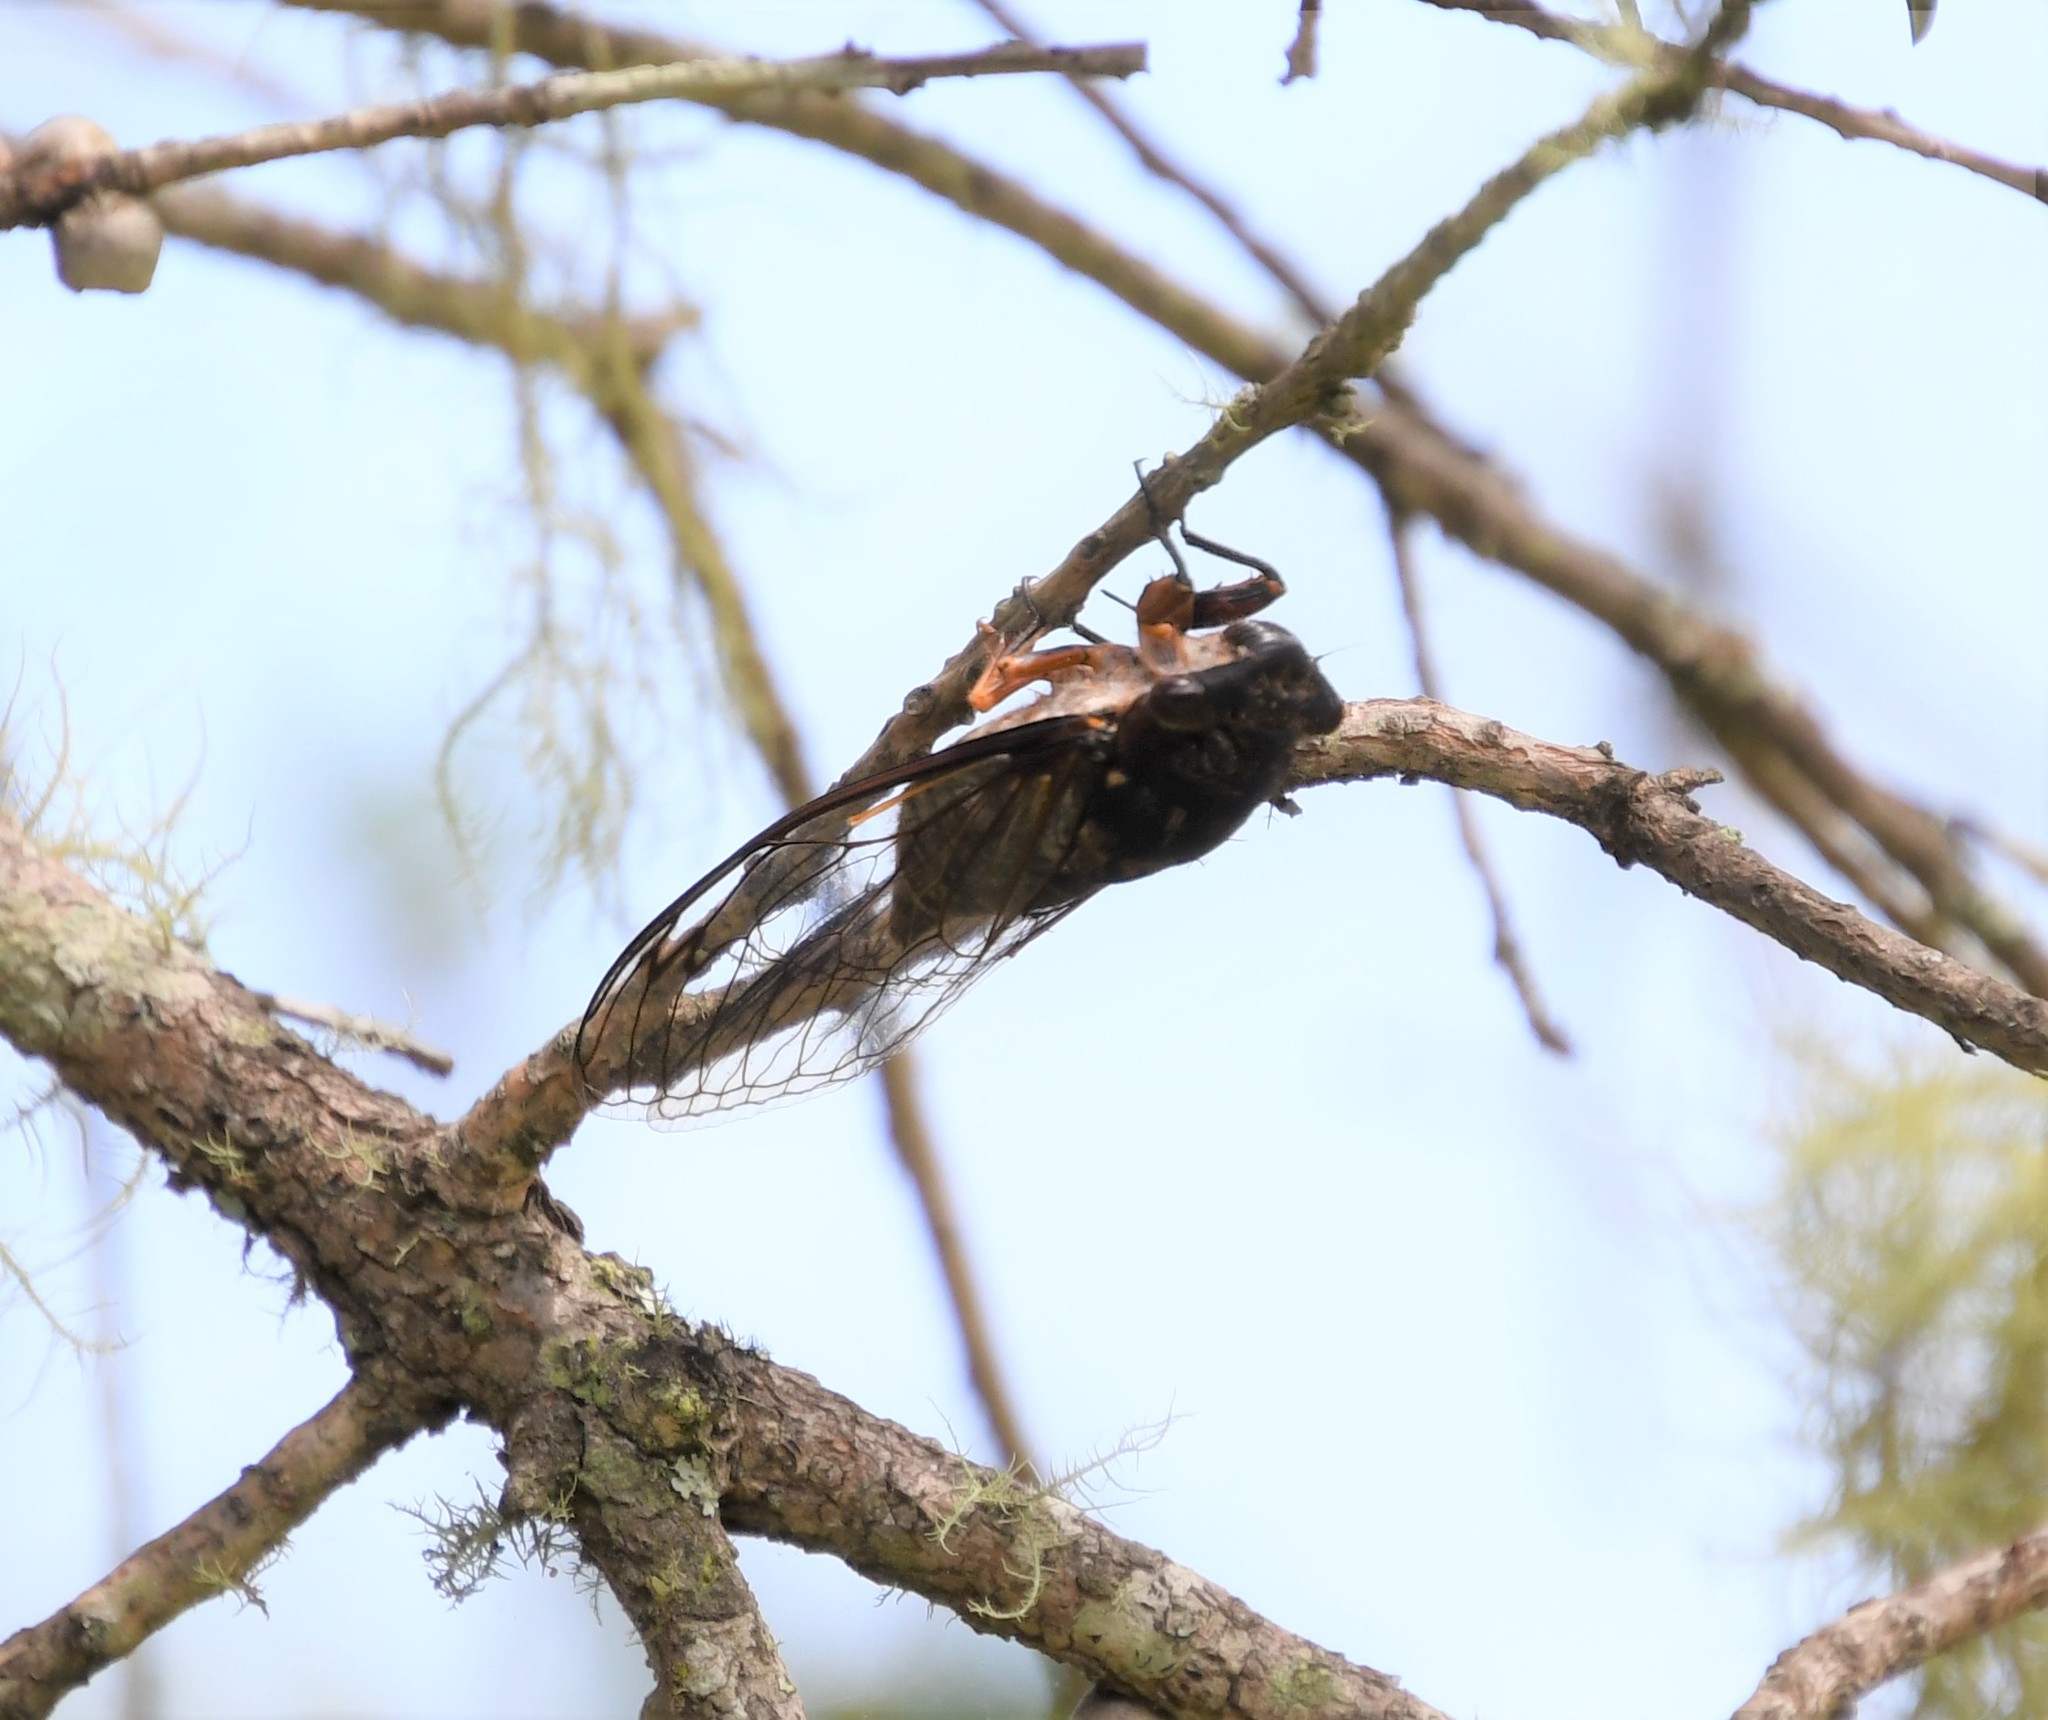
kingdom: Animalia
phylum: Arthropoda
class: Insecta
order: Hemiptera
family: Cicadidae
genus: Psaltoda
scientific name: Psaltoda plaga
